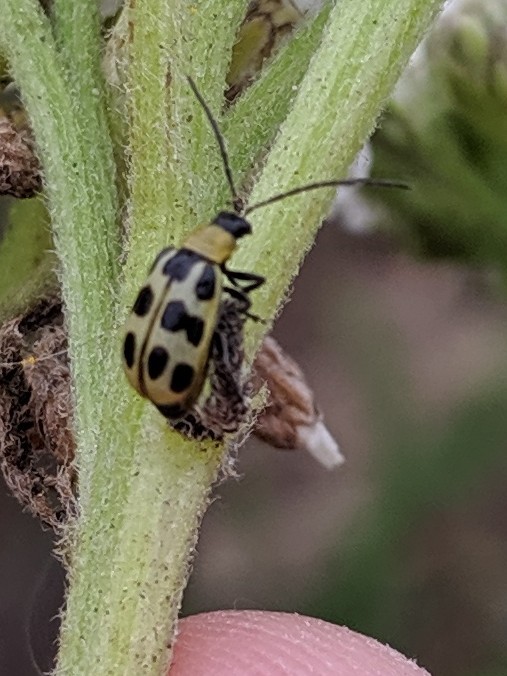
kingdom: Animalia
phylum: Arthropoda
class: Insecta
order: Coleoptera
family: Chrysomelidae
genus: Diabrotica
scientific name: Diabrotica undecimpunctata
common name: Spotted cucumber beetle
